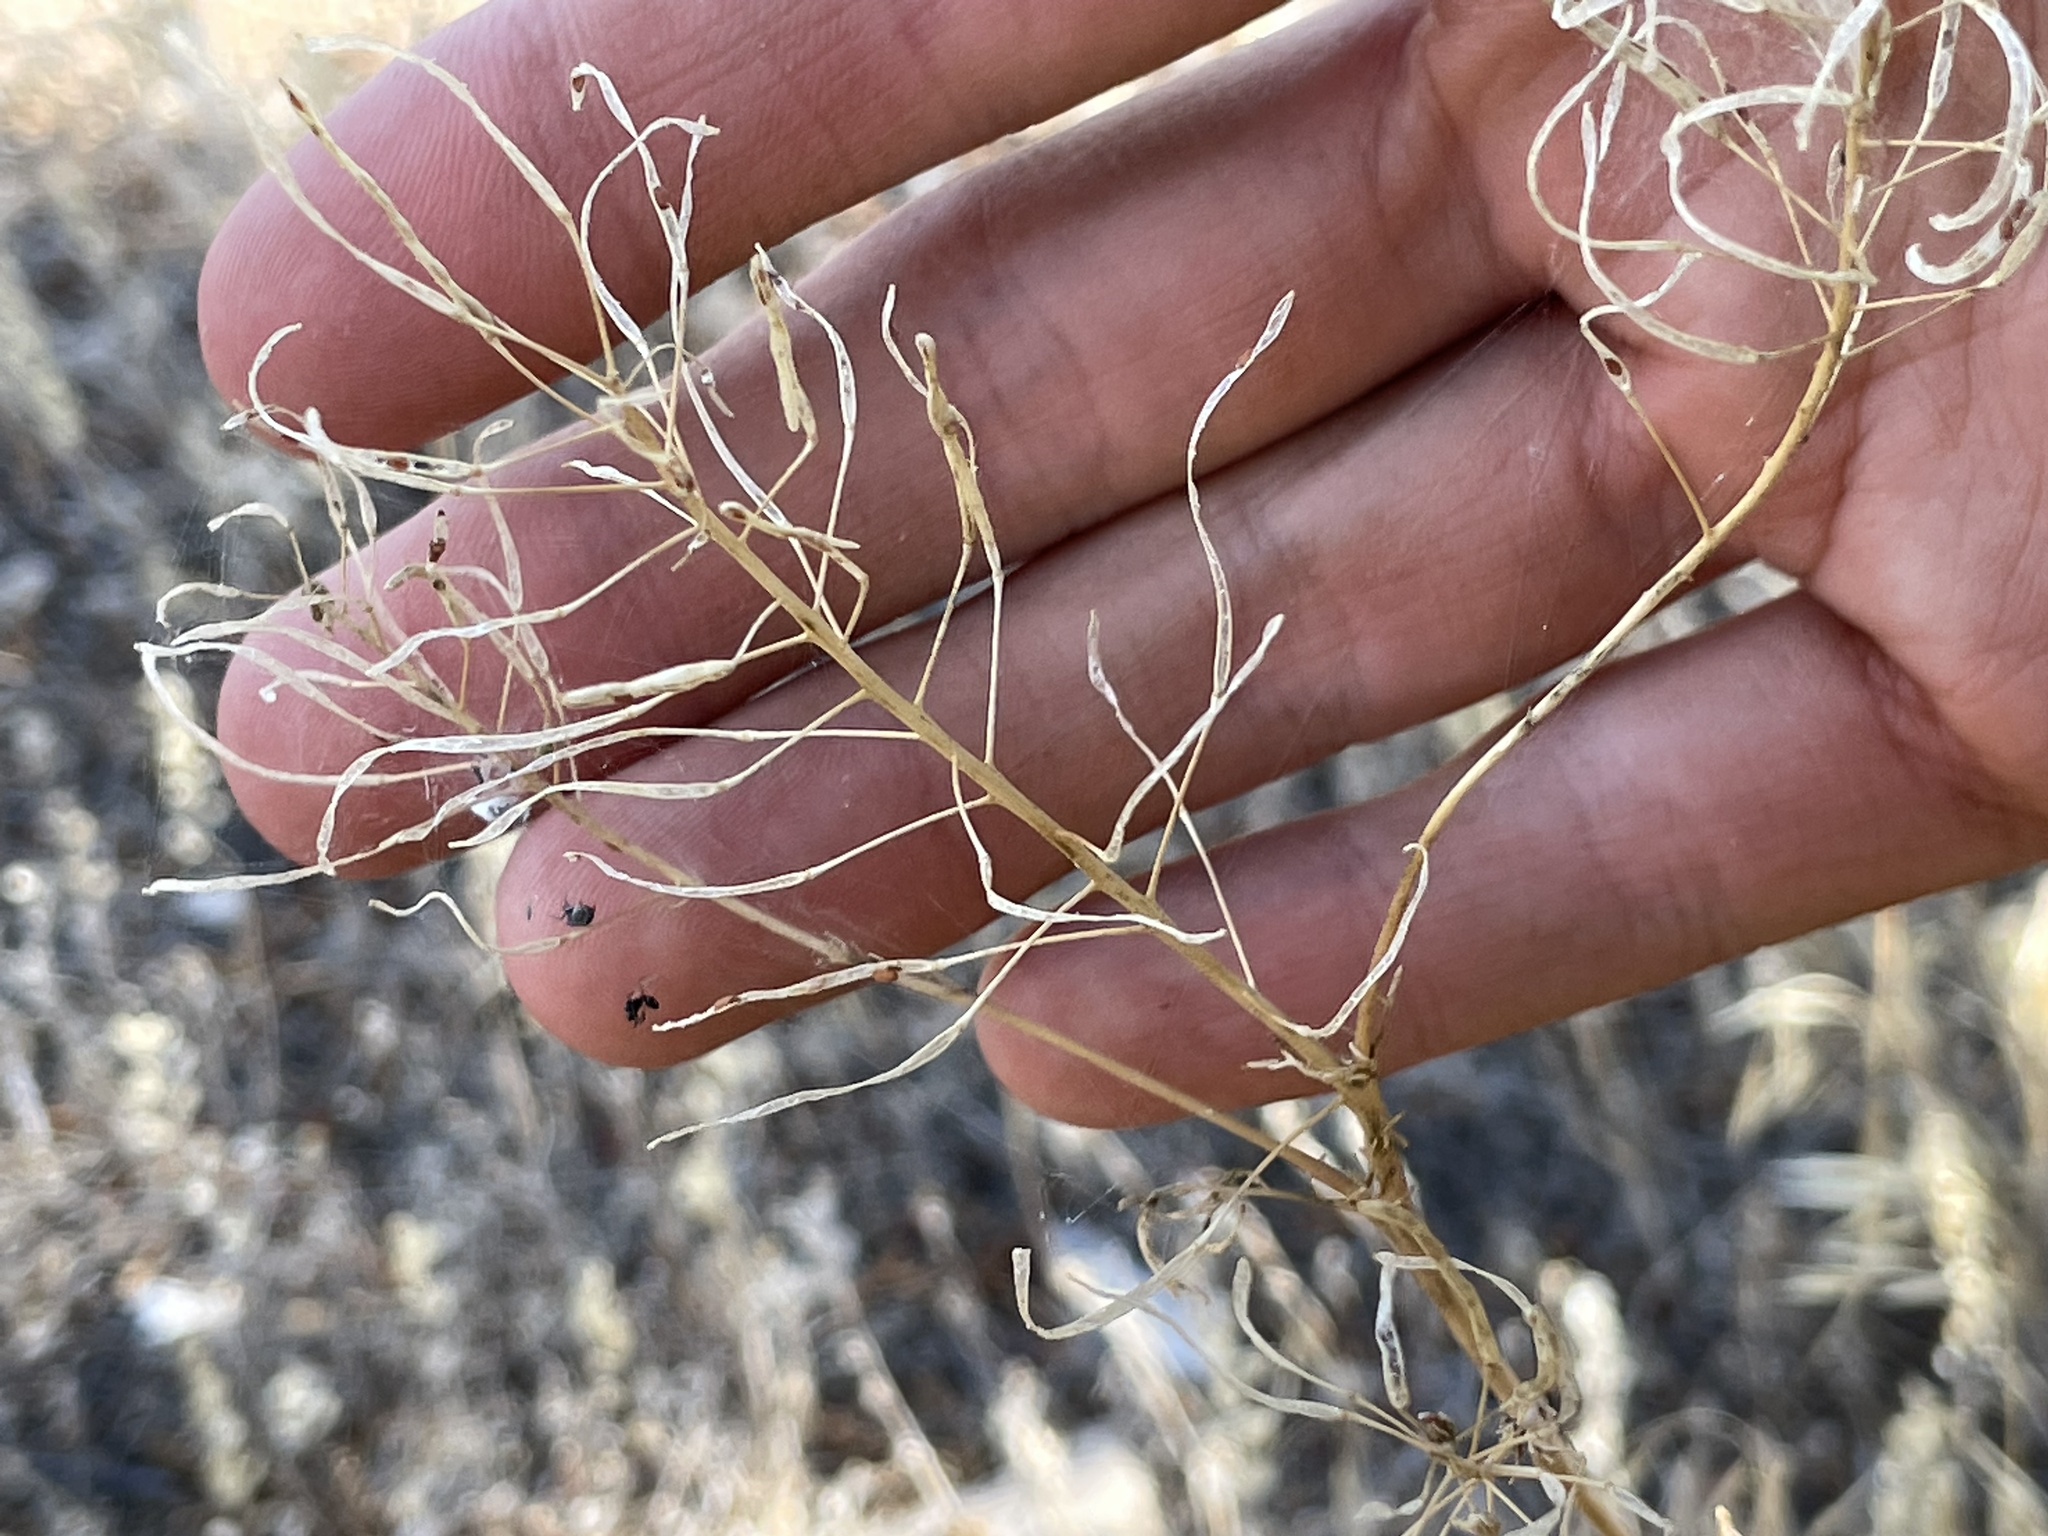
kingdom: Plantae
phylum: Tracheophyta
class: Magnoliopsida
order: Brassicales
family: Brassicaceae
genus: Descurainia
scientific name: Descurainia sophia
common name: Flixweed
